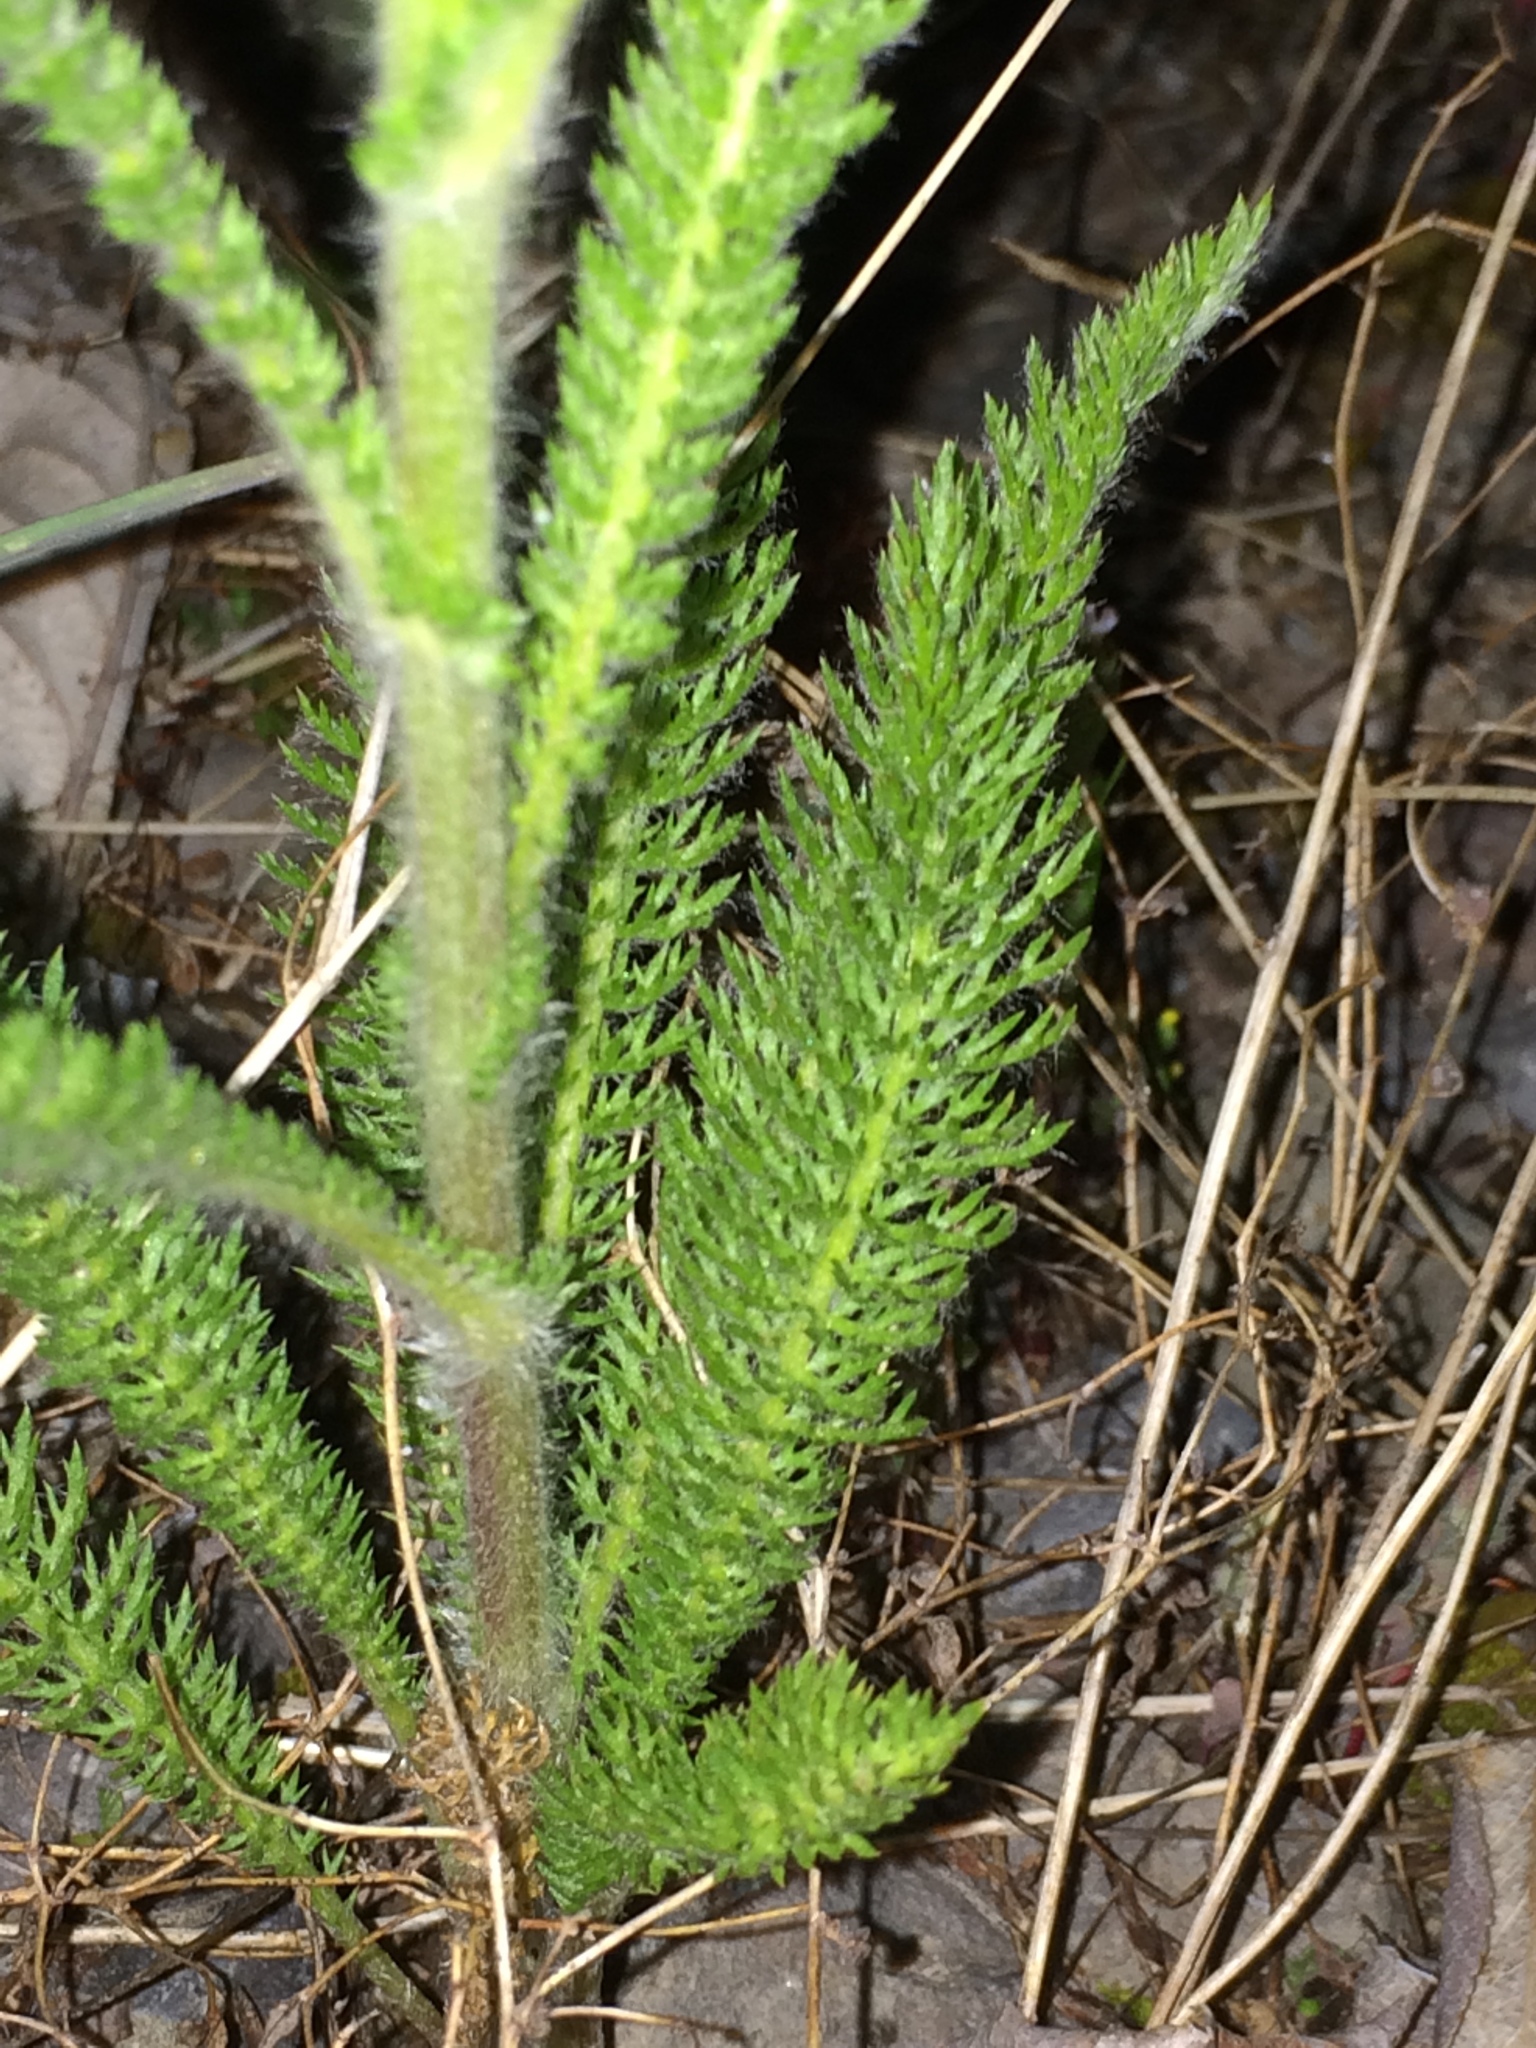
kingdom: Plantae
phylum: Tracheophyta
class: Magnoliopsida
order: Asterales
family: Asteraceae
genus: Achillea
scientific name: Achillea millefolium
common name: Yarrow
